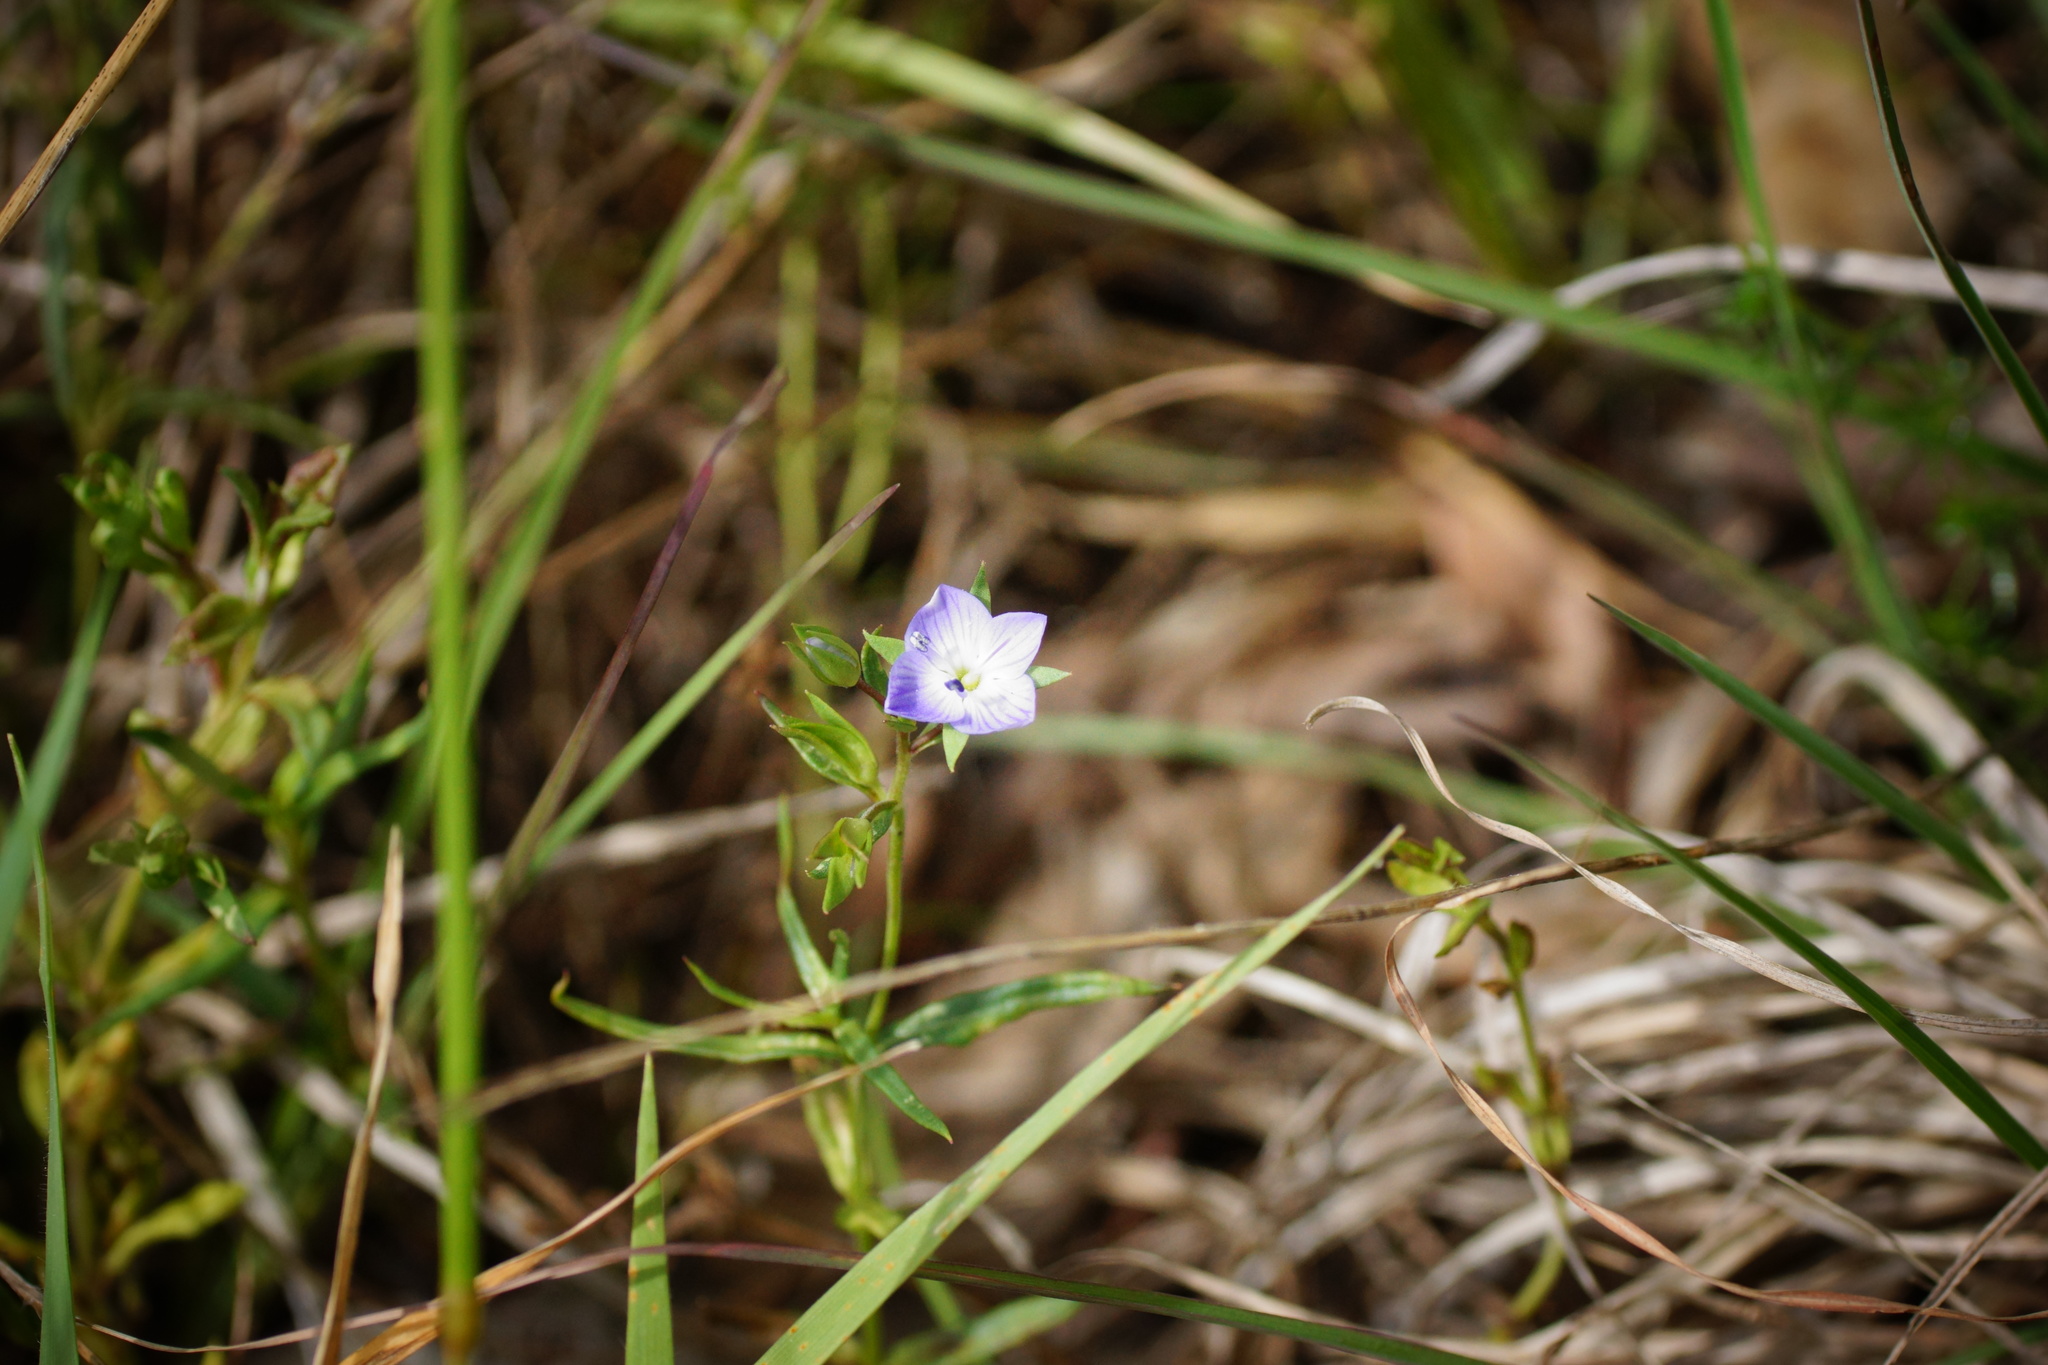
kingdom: Plantae
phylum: Tracheophyta
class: Magnoliopsida
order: Lamiales
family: Plantaginaceae
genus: Veronica
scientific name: Veronica gracilis
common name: Slender speedwell
